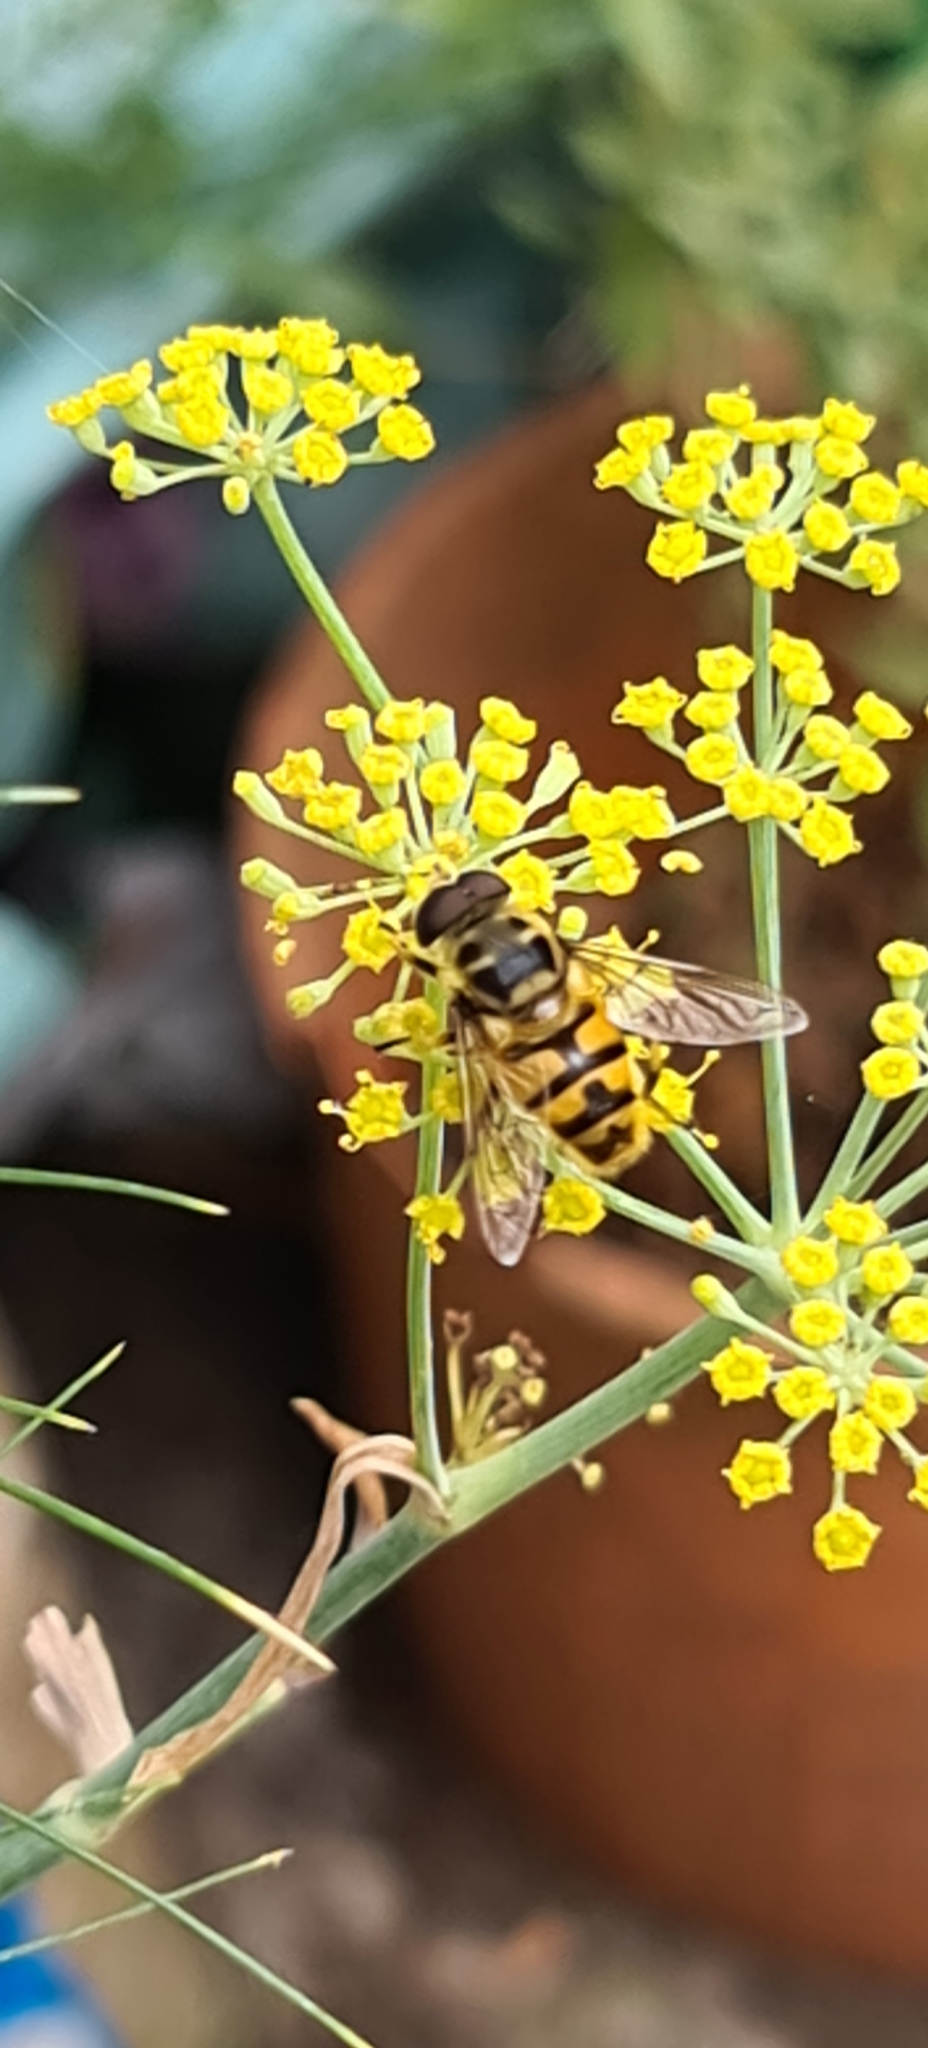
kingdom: Animalia
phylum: Arthropoda
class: Insecta
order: Diptera
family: Syrphidae
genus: Myathropa
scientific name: Myathropa florea
